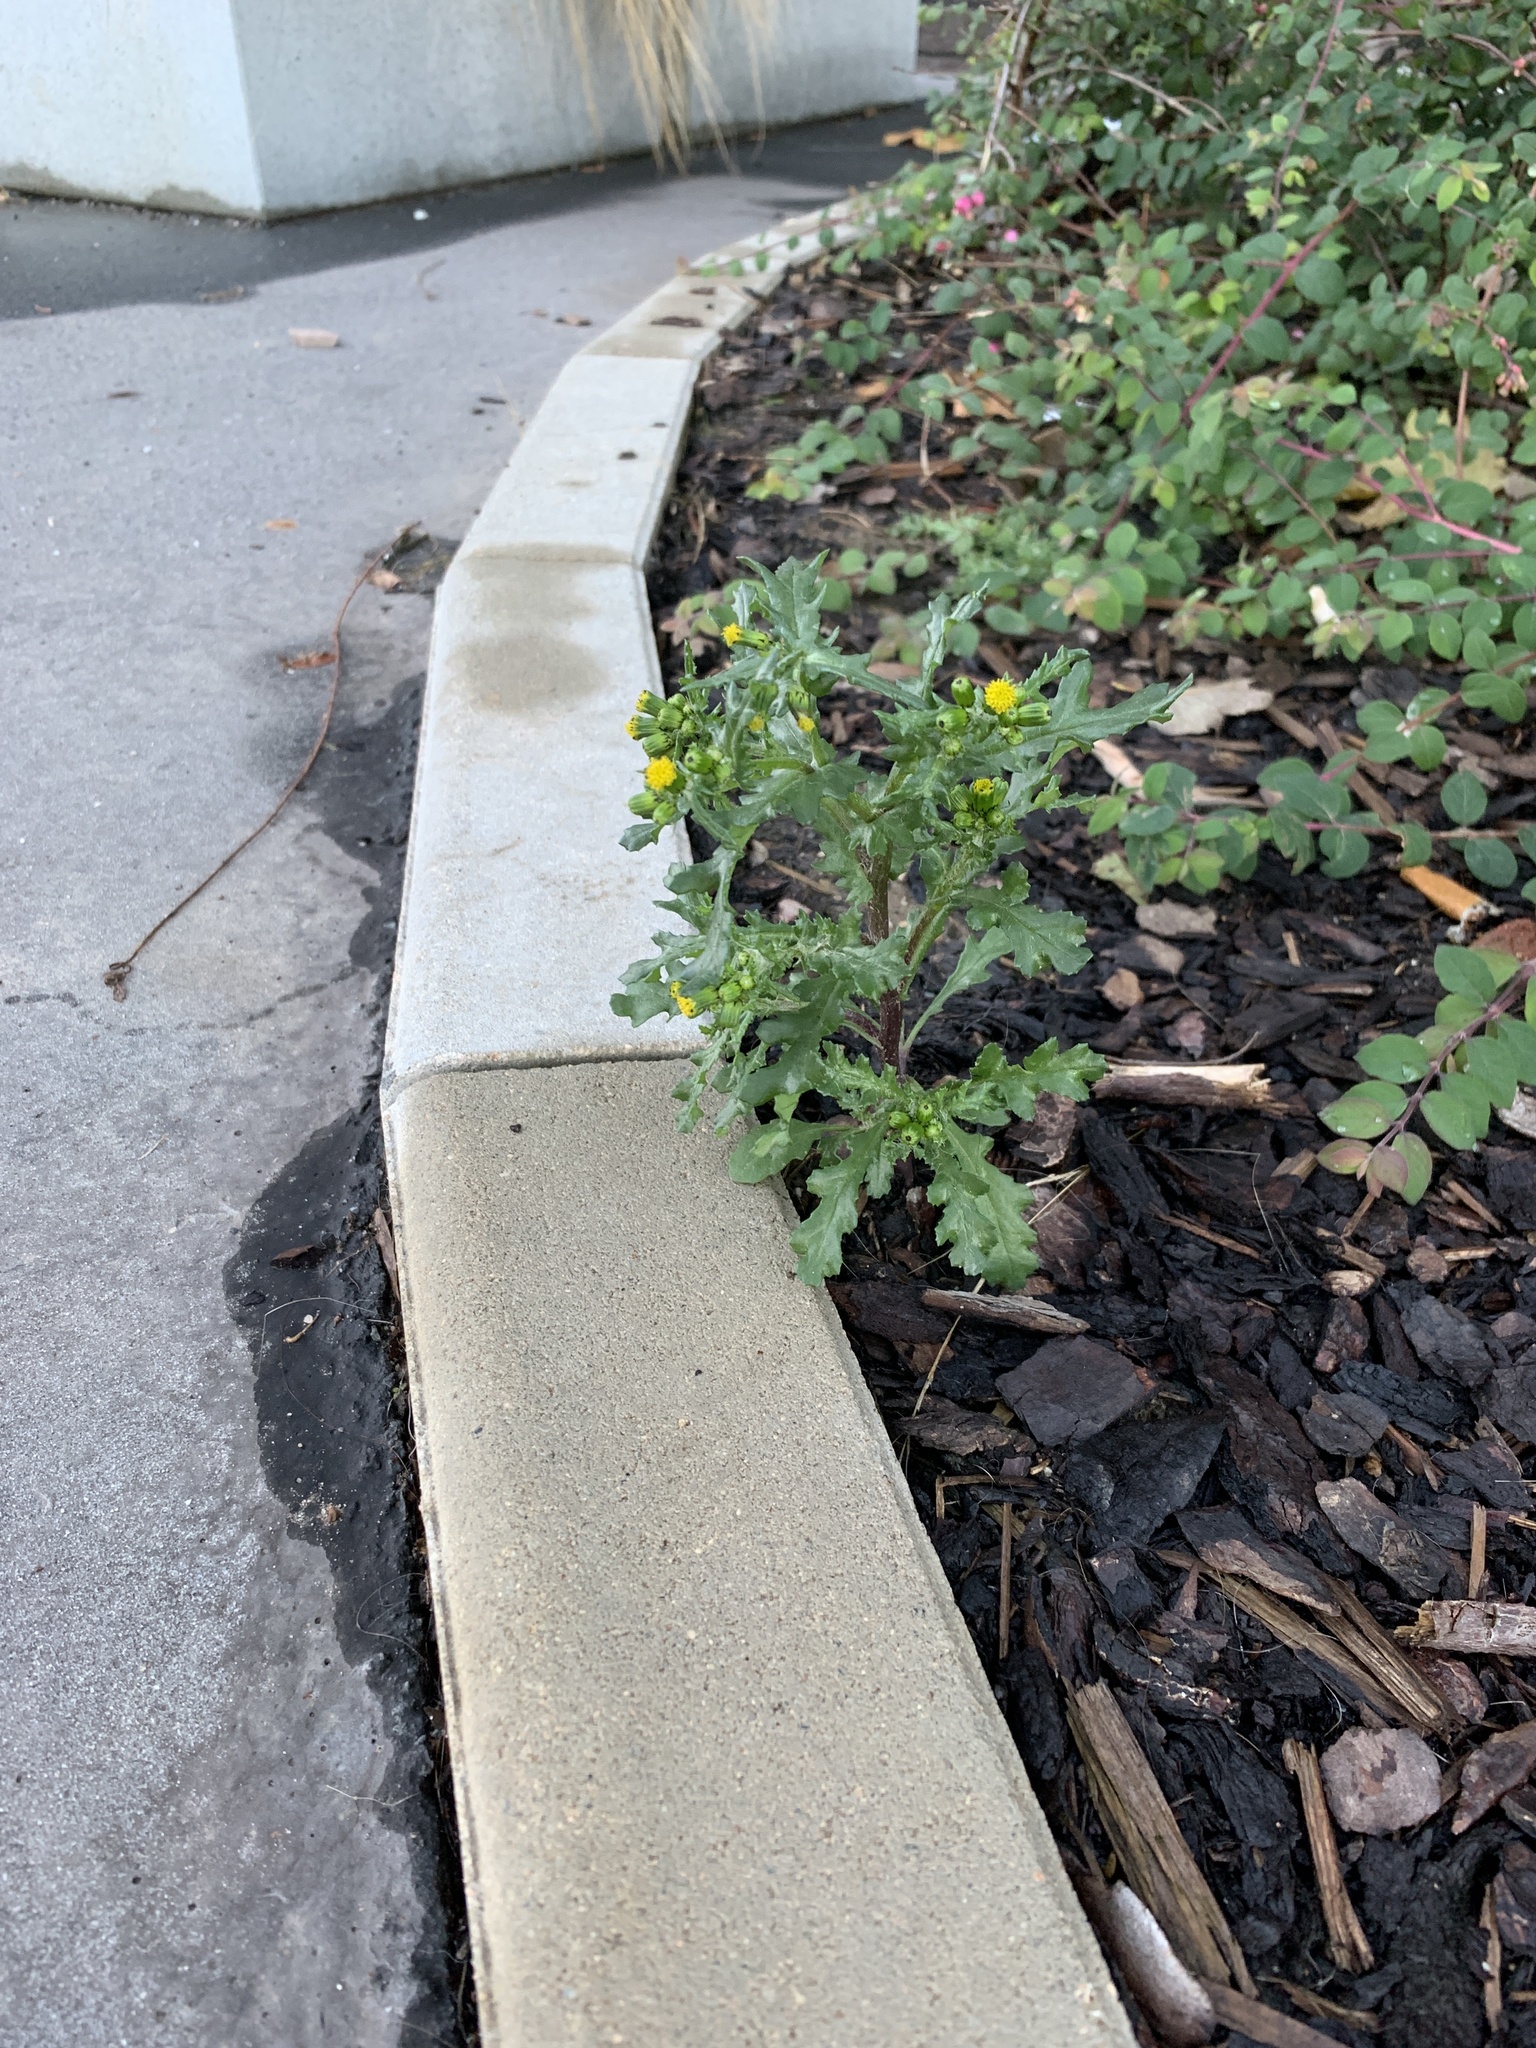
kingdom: Plantae
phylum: Tracheophyta
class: Magnoliopsida
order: Asterales
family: Asteraceae
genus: Senecio
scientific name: Senecio vulgaris
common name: Old-man-in-the-spring
